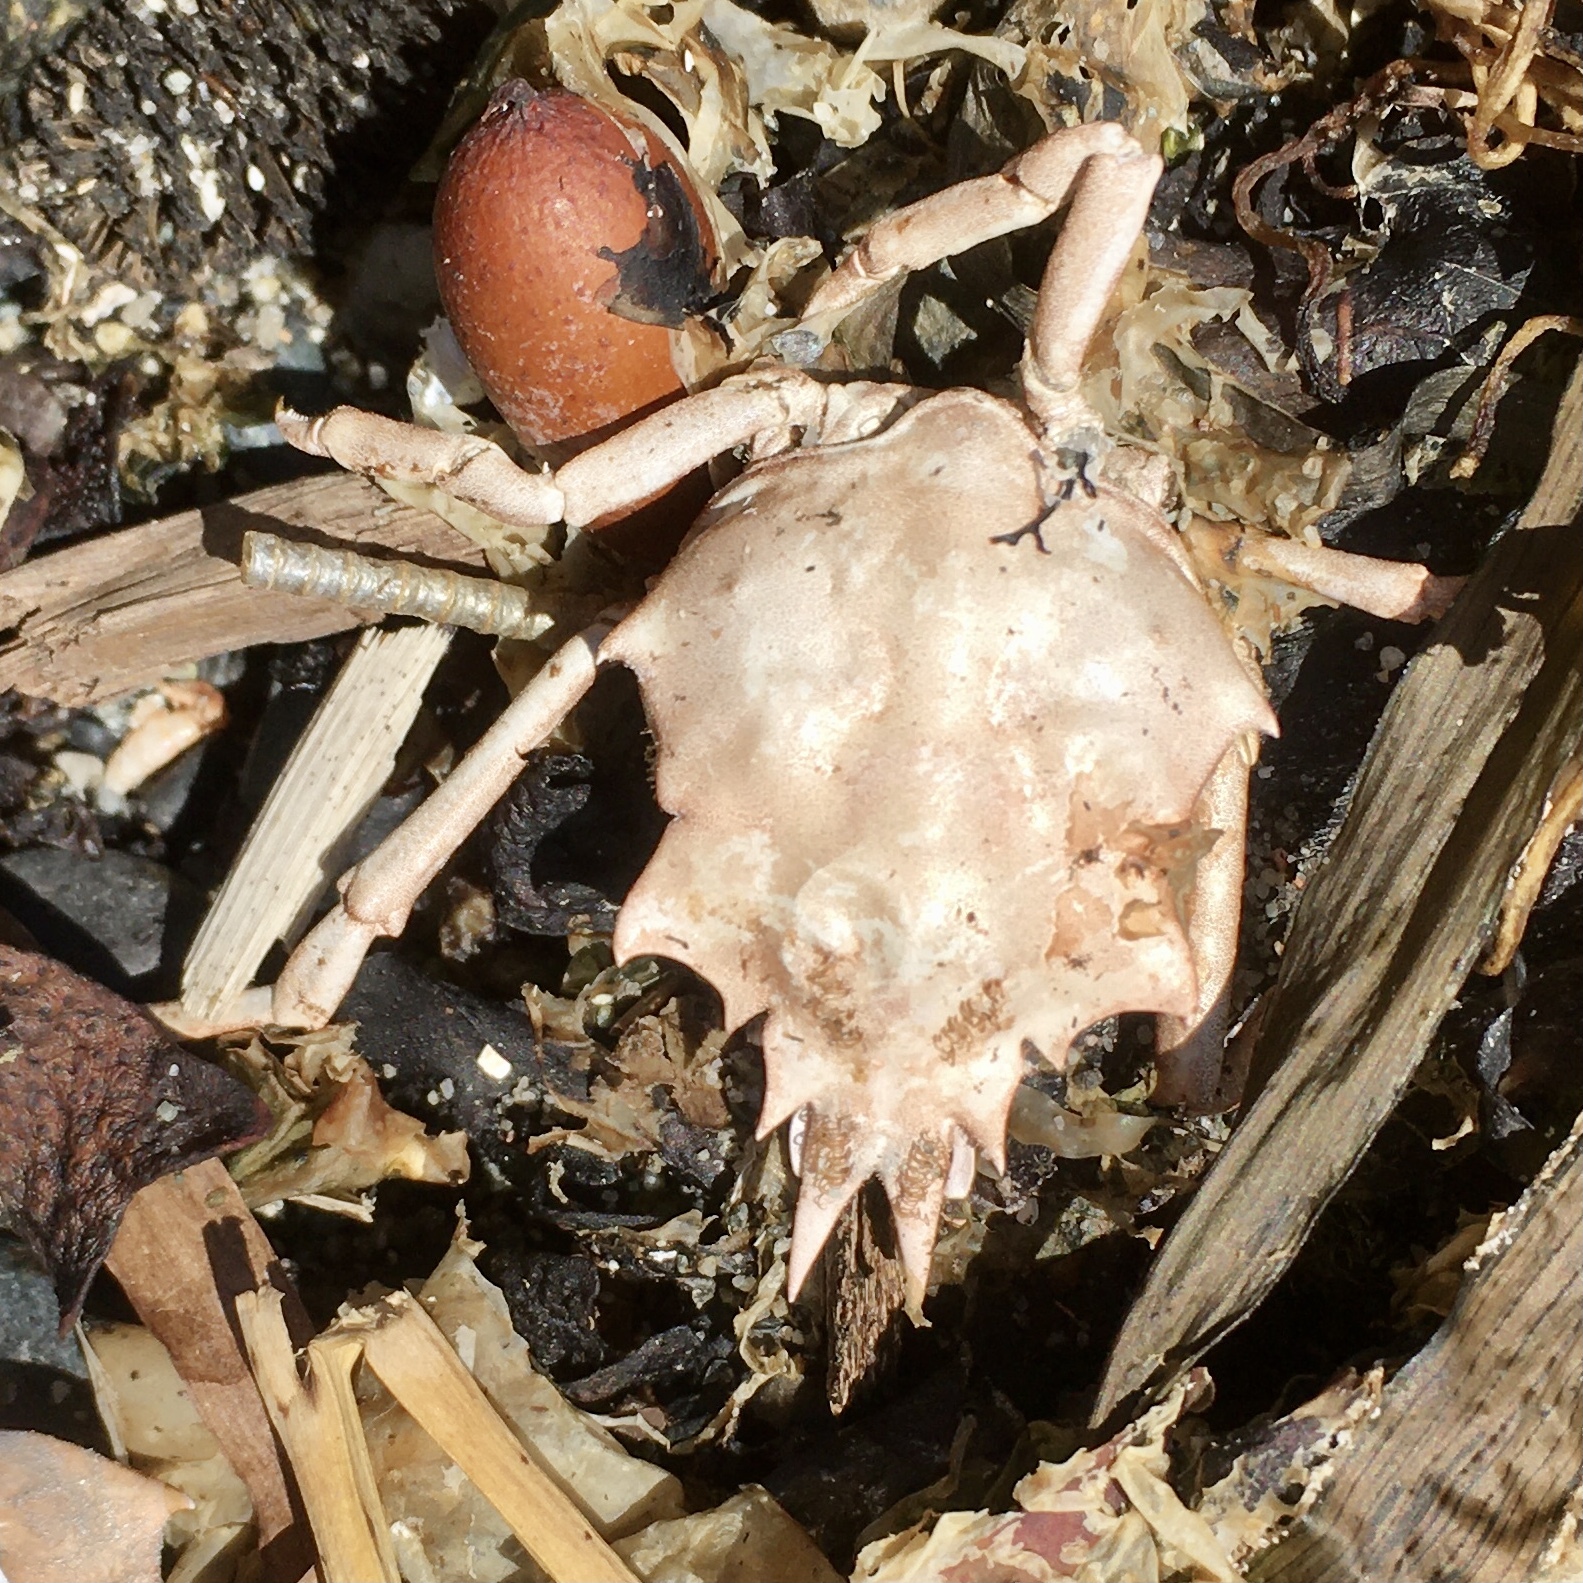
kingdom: Animalia
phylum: Arthropoda
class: Malacostraca
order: Decapoda
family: Epialtidae
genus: Pugettia
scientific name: Pugettia gracilis
